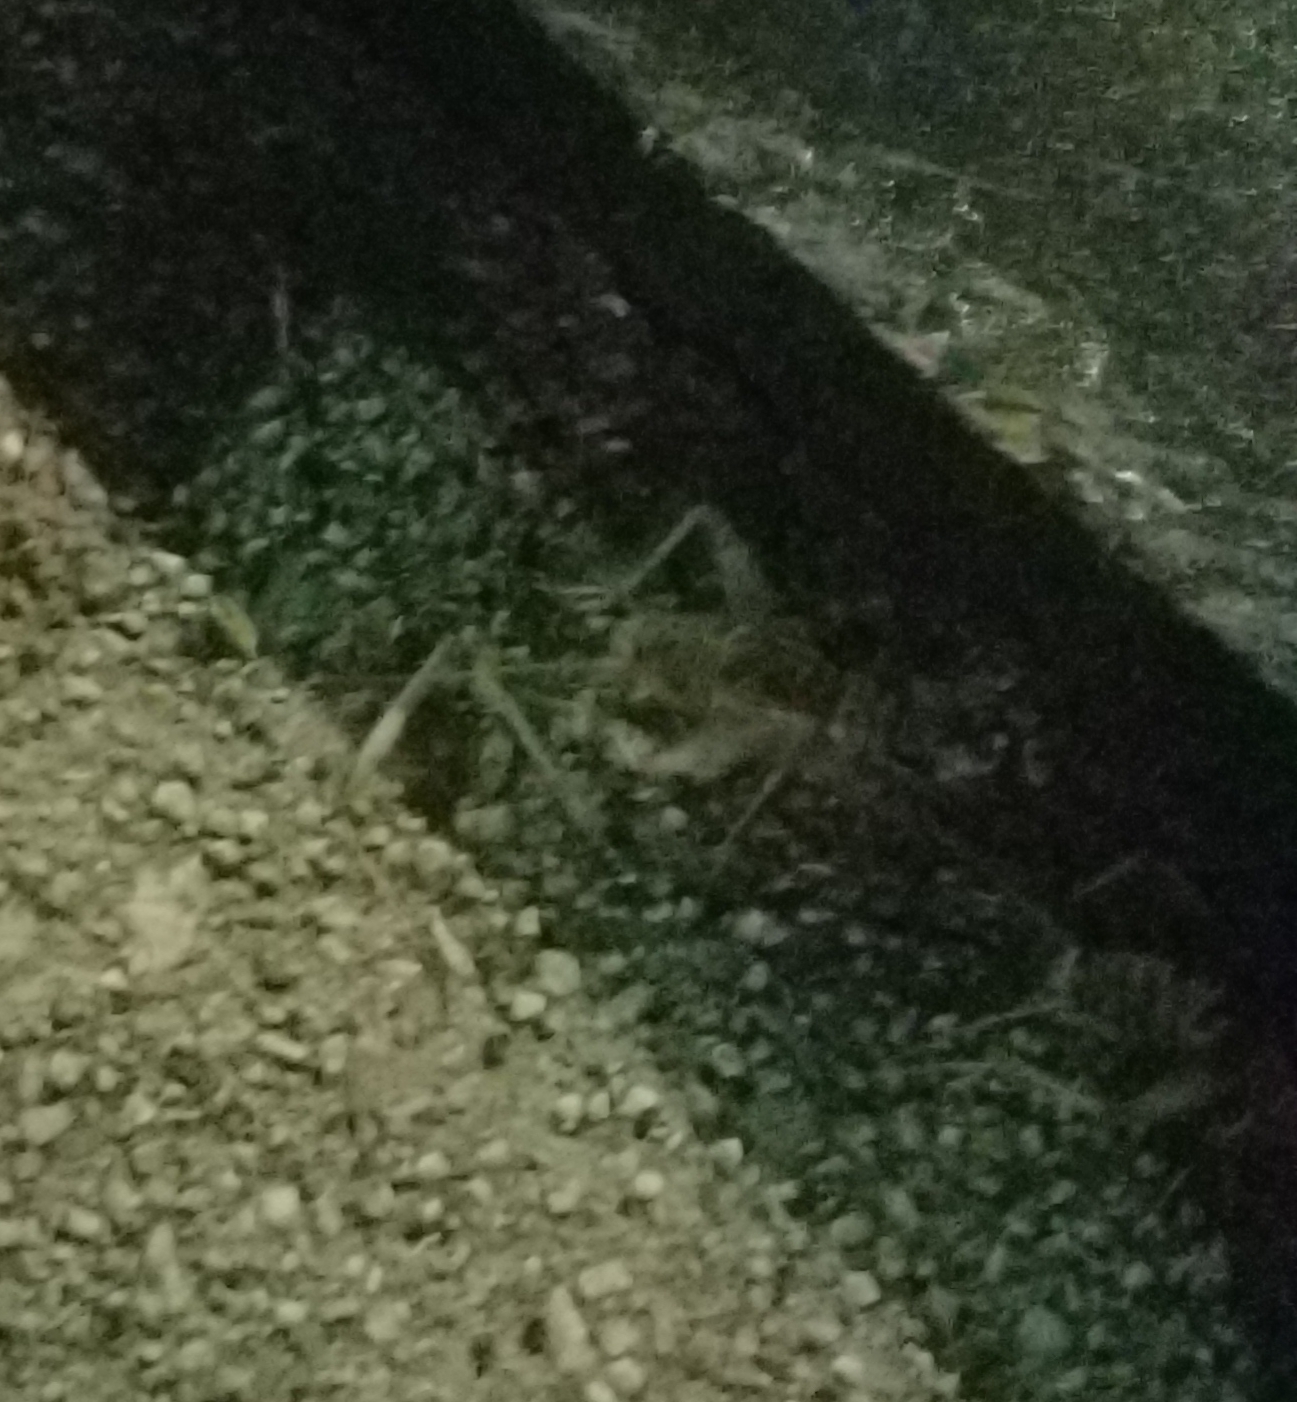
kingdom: Animalia
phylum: Arthropoda
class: Insecta
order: Orthoptera
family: Gryllidae
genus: Gryllodes
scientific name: Gryllodes sigillatus
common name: Tropical house cricket
